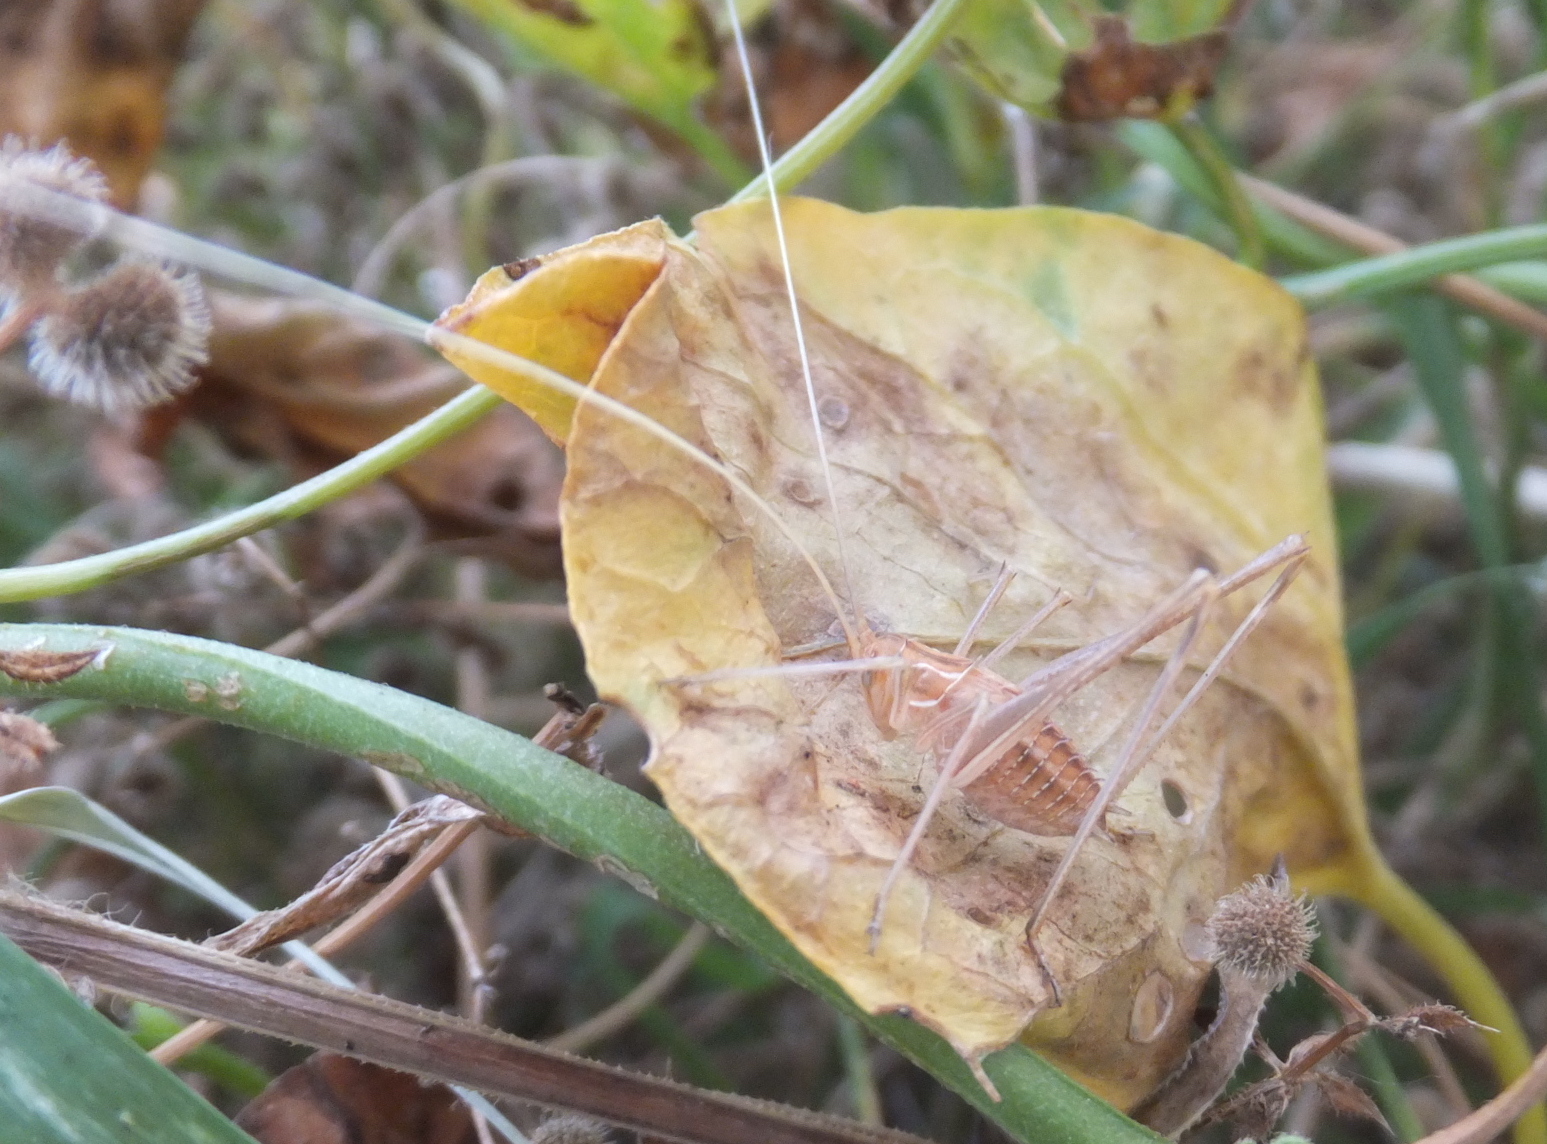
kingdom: Animalia
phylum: Arthropoda
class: Insecta
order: Orthoptera
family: Tettigoniidae
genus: Tylopsis
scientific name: Tylopsis lilifolia
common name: Lily bush-cricket
